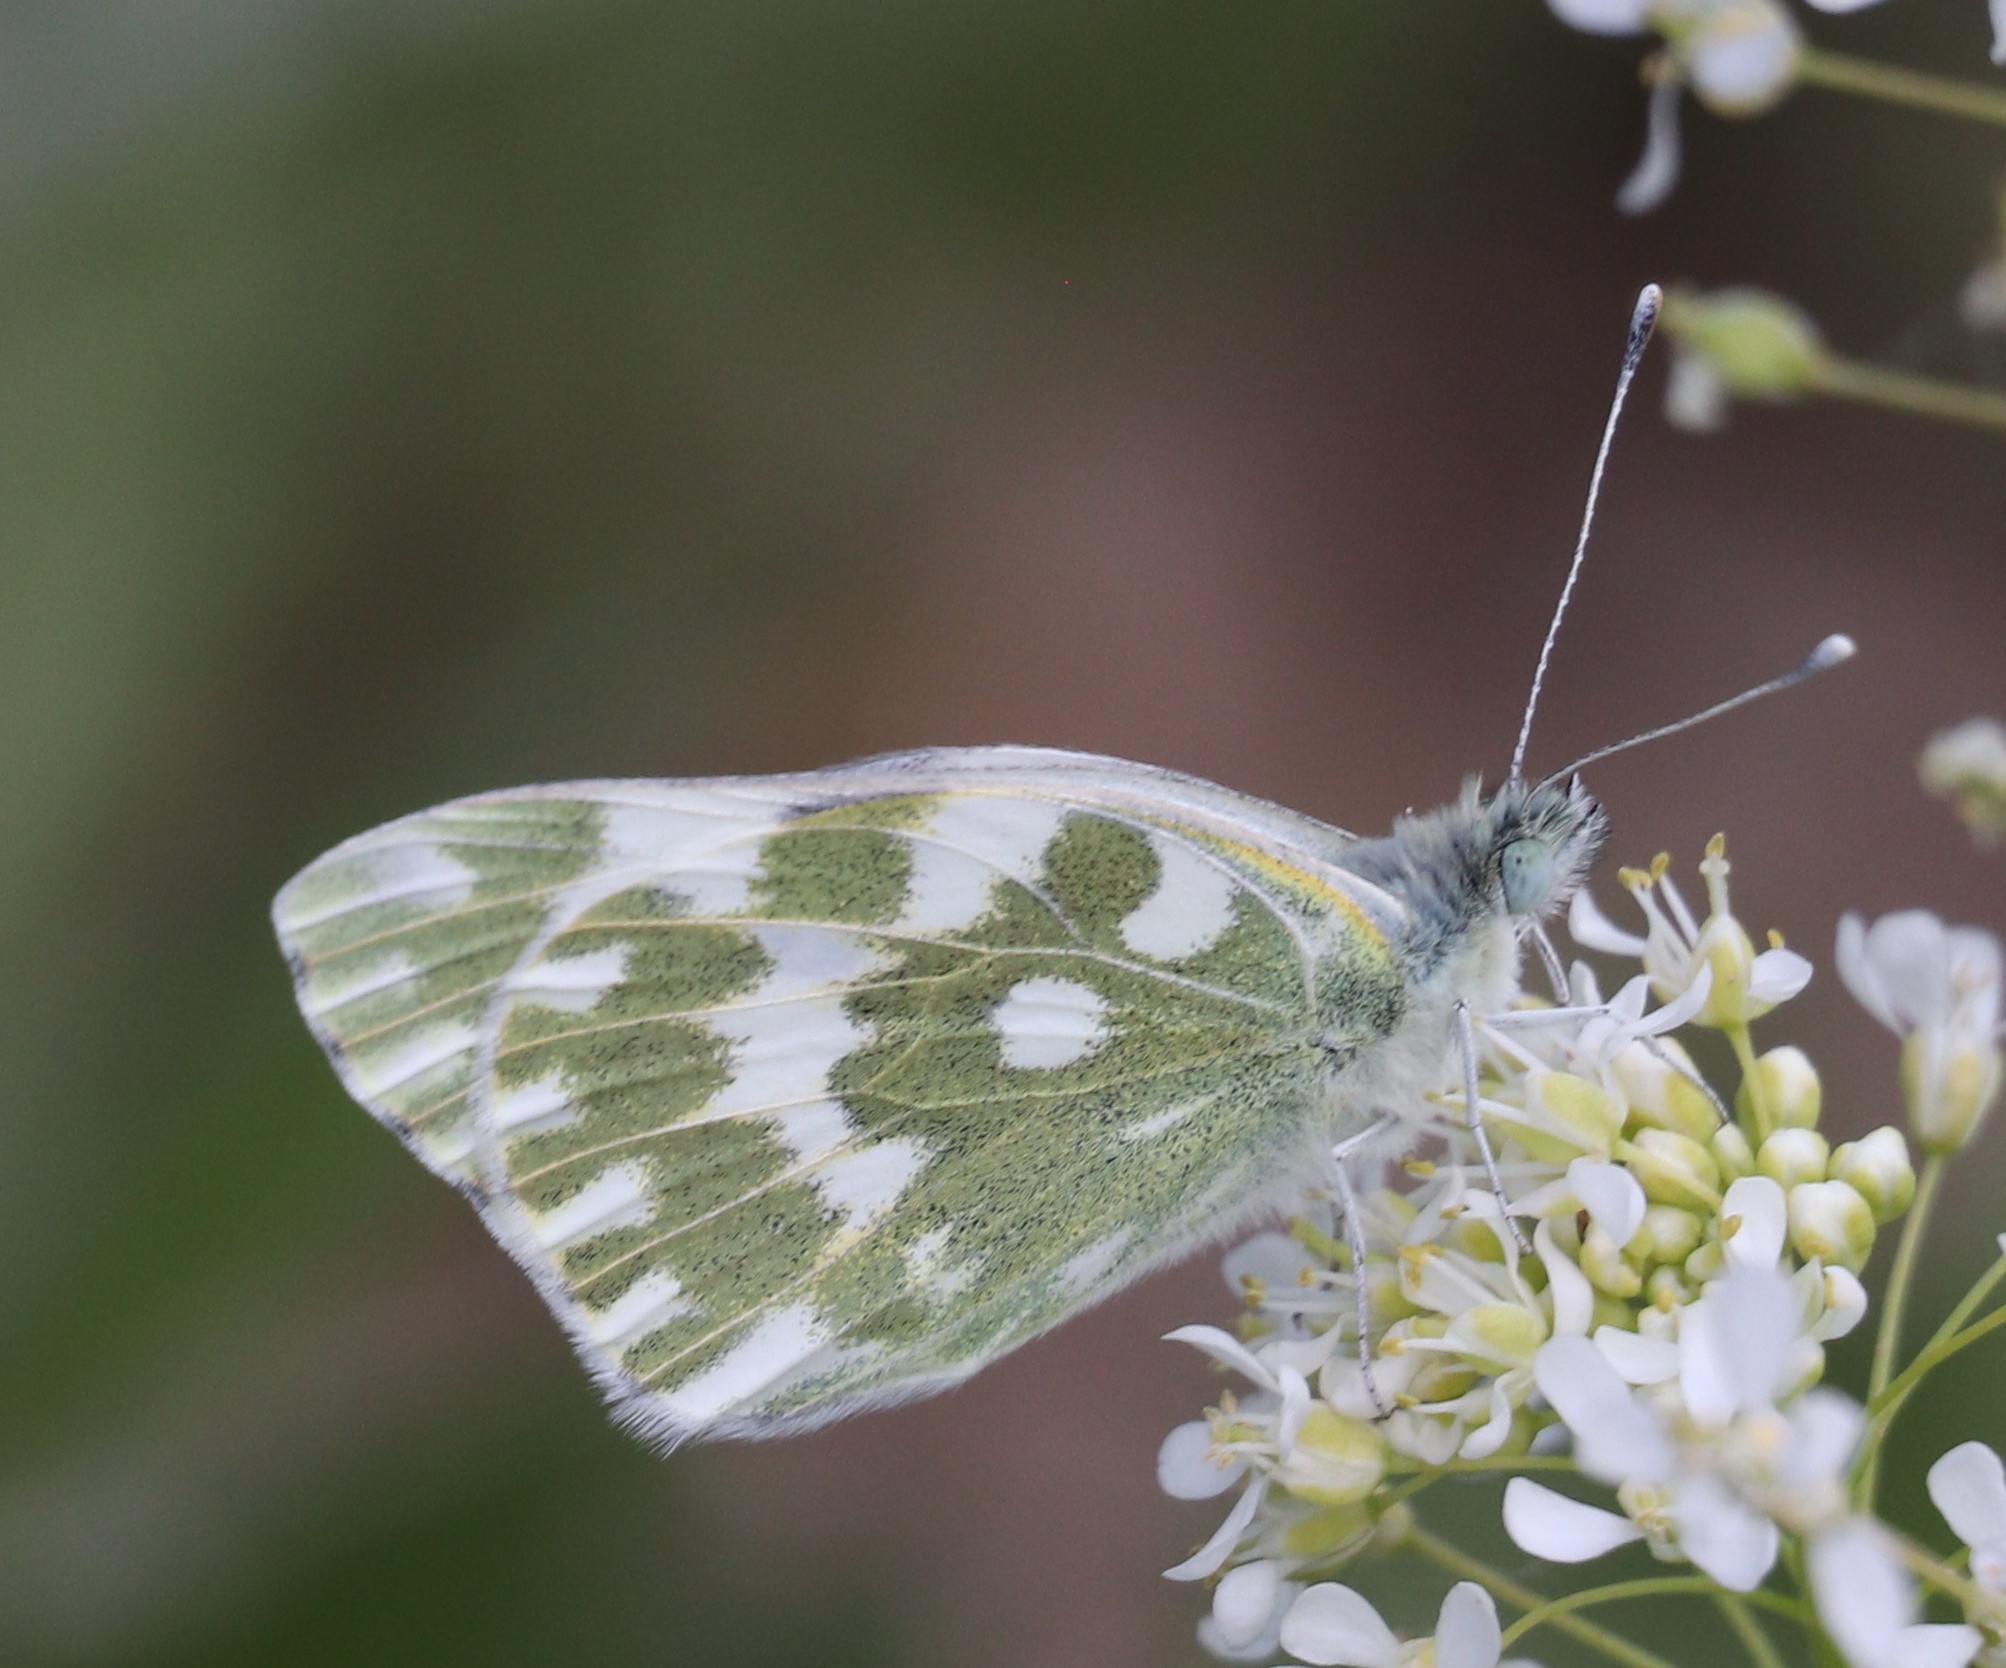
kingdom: Animalia
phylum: Arthropoda
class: Insecta
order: Lepidoptera
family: Pieridae
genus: Pontia
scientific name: Pontia edusa
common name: Eastern bath white
